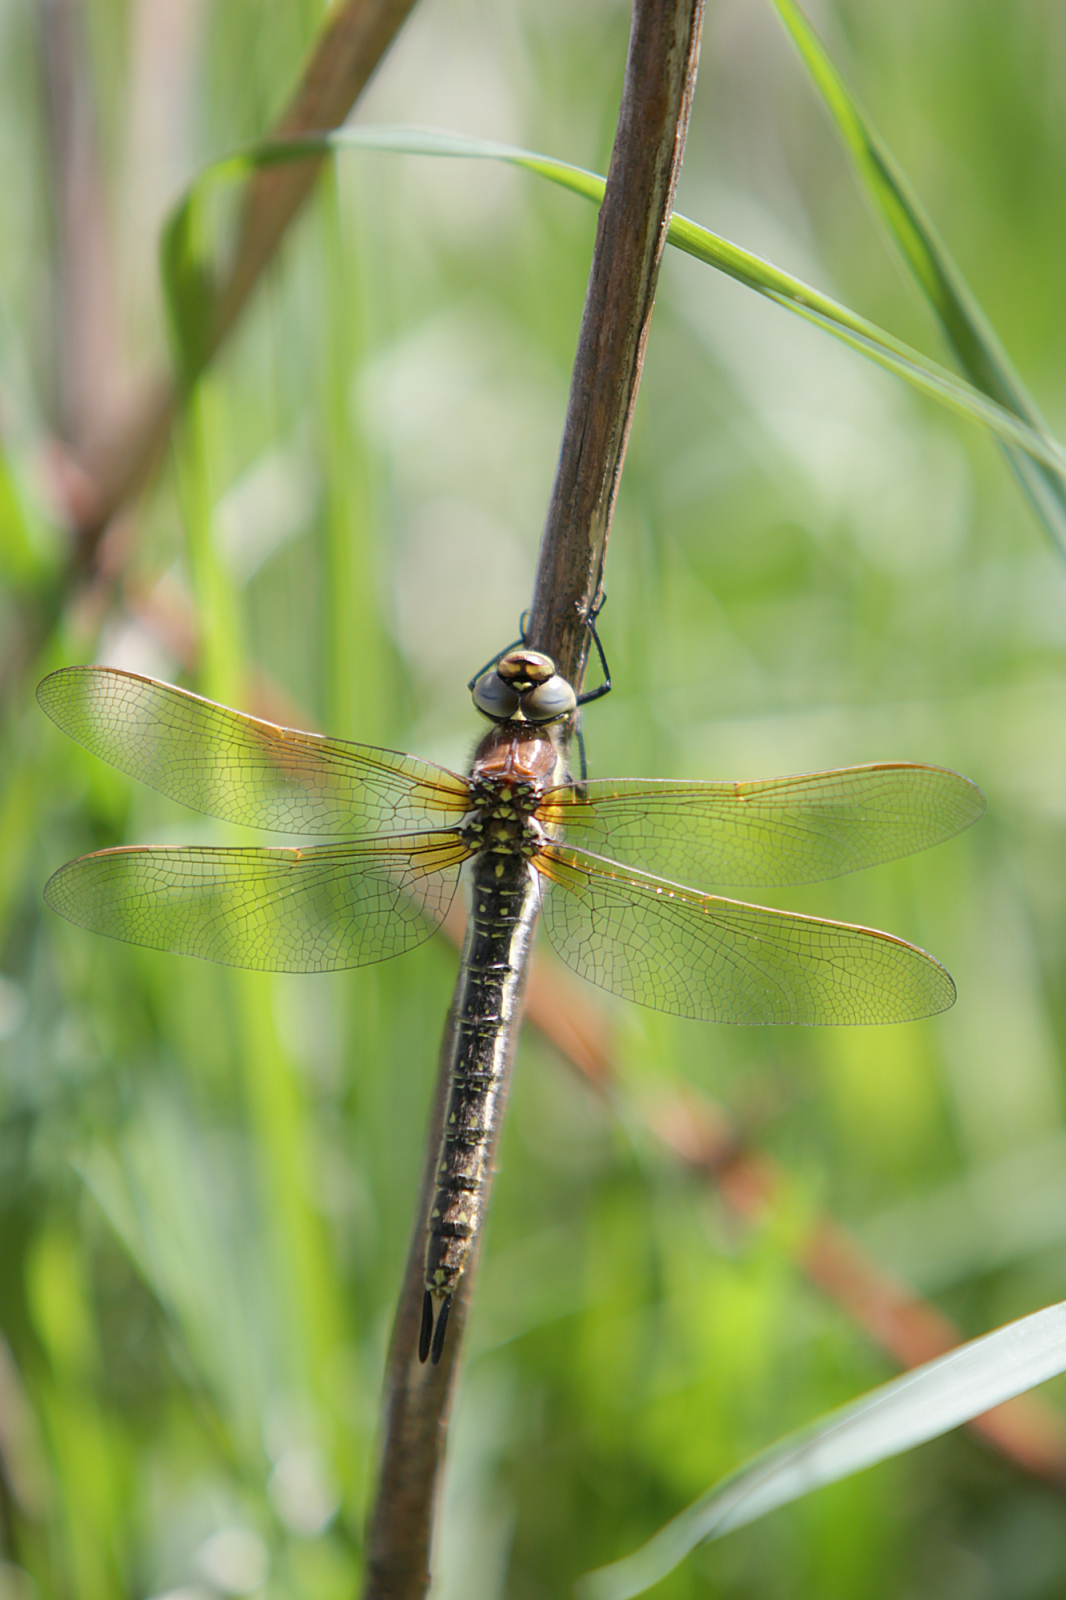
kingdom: Animalia
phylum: Arthropoda
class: Insecta
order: Odonata
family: Aeshnidae
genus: Brachytron
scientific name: Brachytron pratense
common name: Hairy hawker
